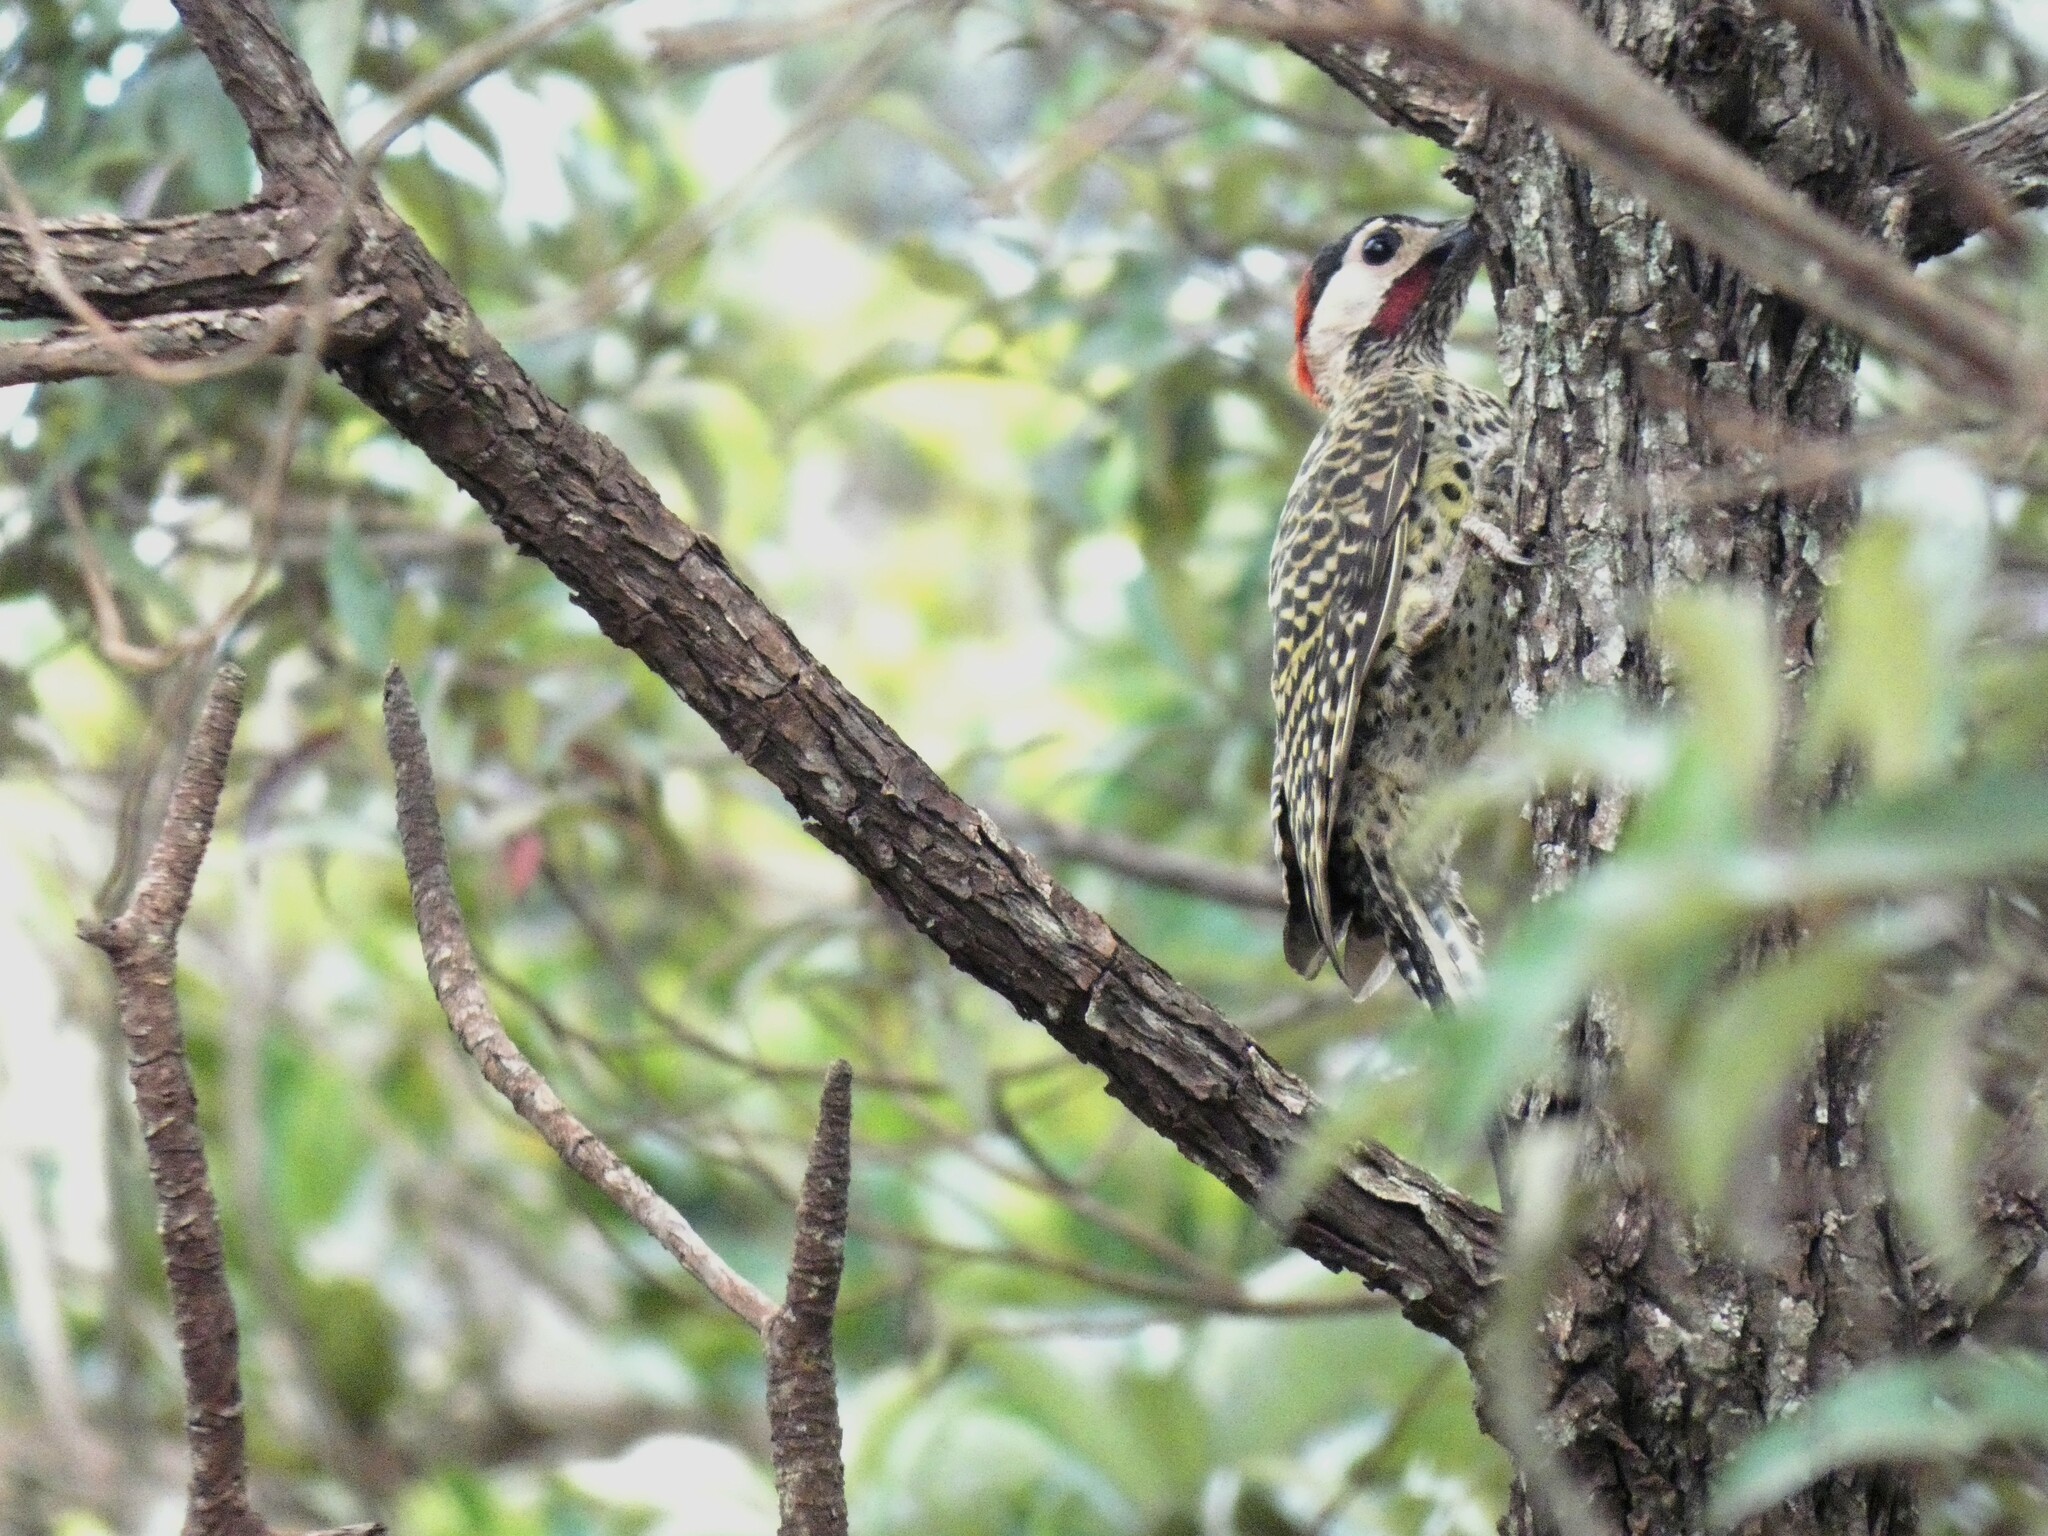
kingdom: Animalia
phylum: Chordata
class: Aves
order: Piciformes
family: Picidae
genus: Colaptes
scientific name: Colaptes melanochloros
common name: Green-barred woodpecker
